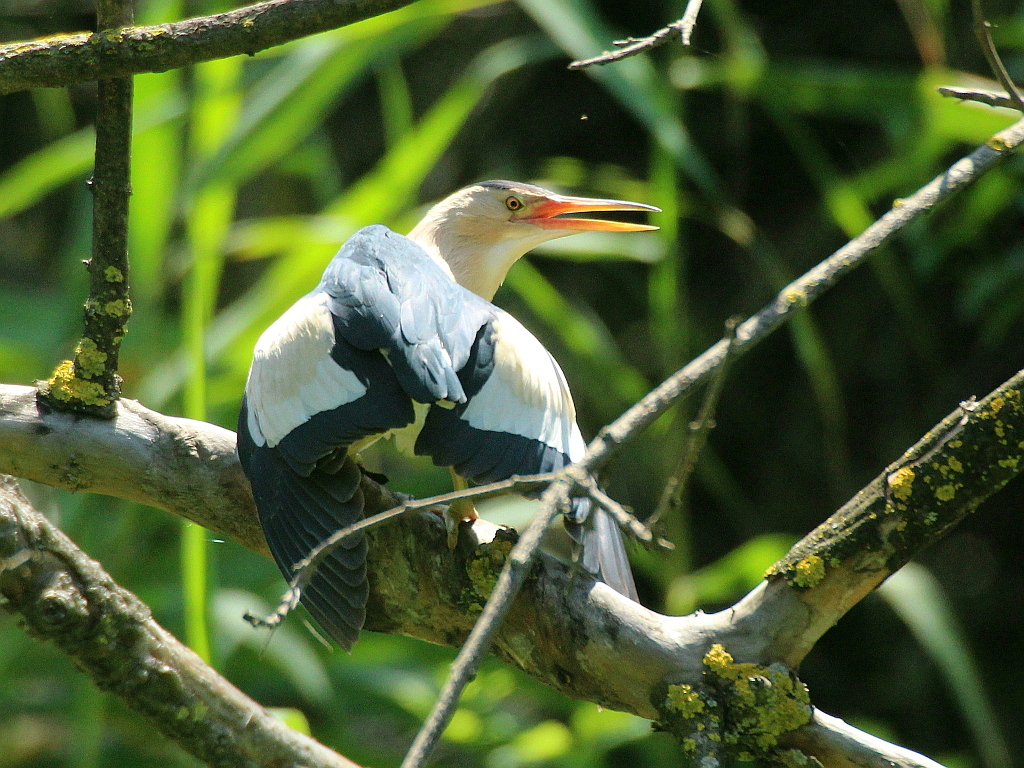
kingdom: Animalia
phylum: Chordata
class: Aves
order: Pelecaniformes
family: Ardeidae
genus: Ixobrychus
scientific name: Ixobrychus minutus
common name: Little bittern
